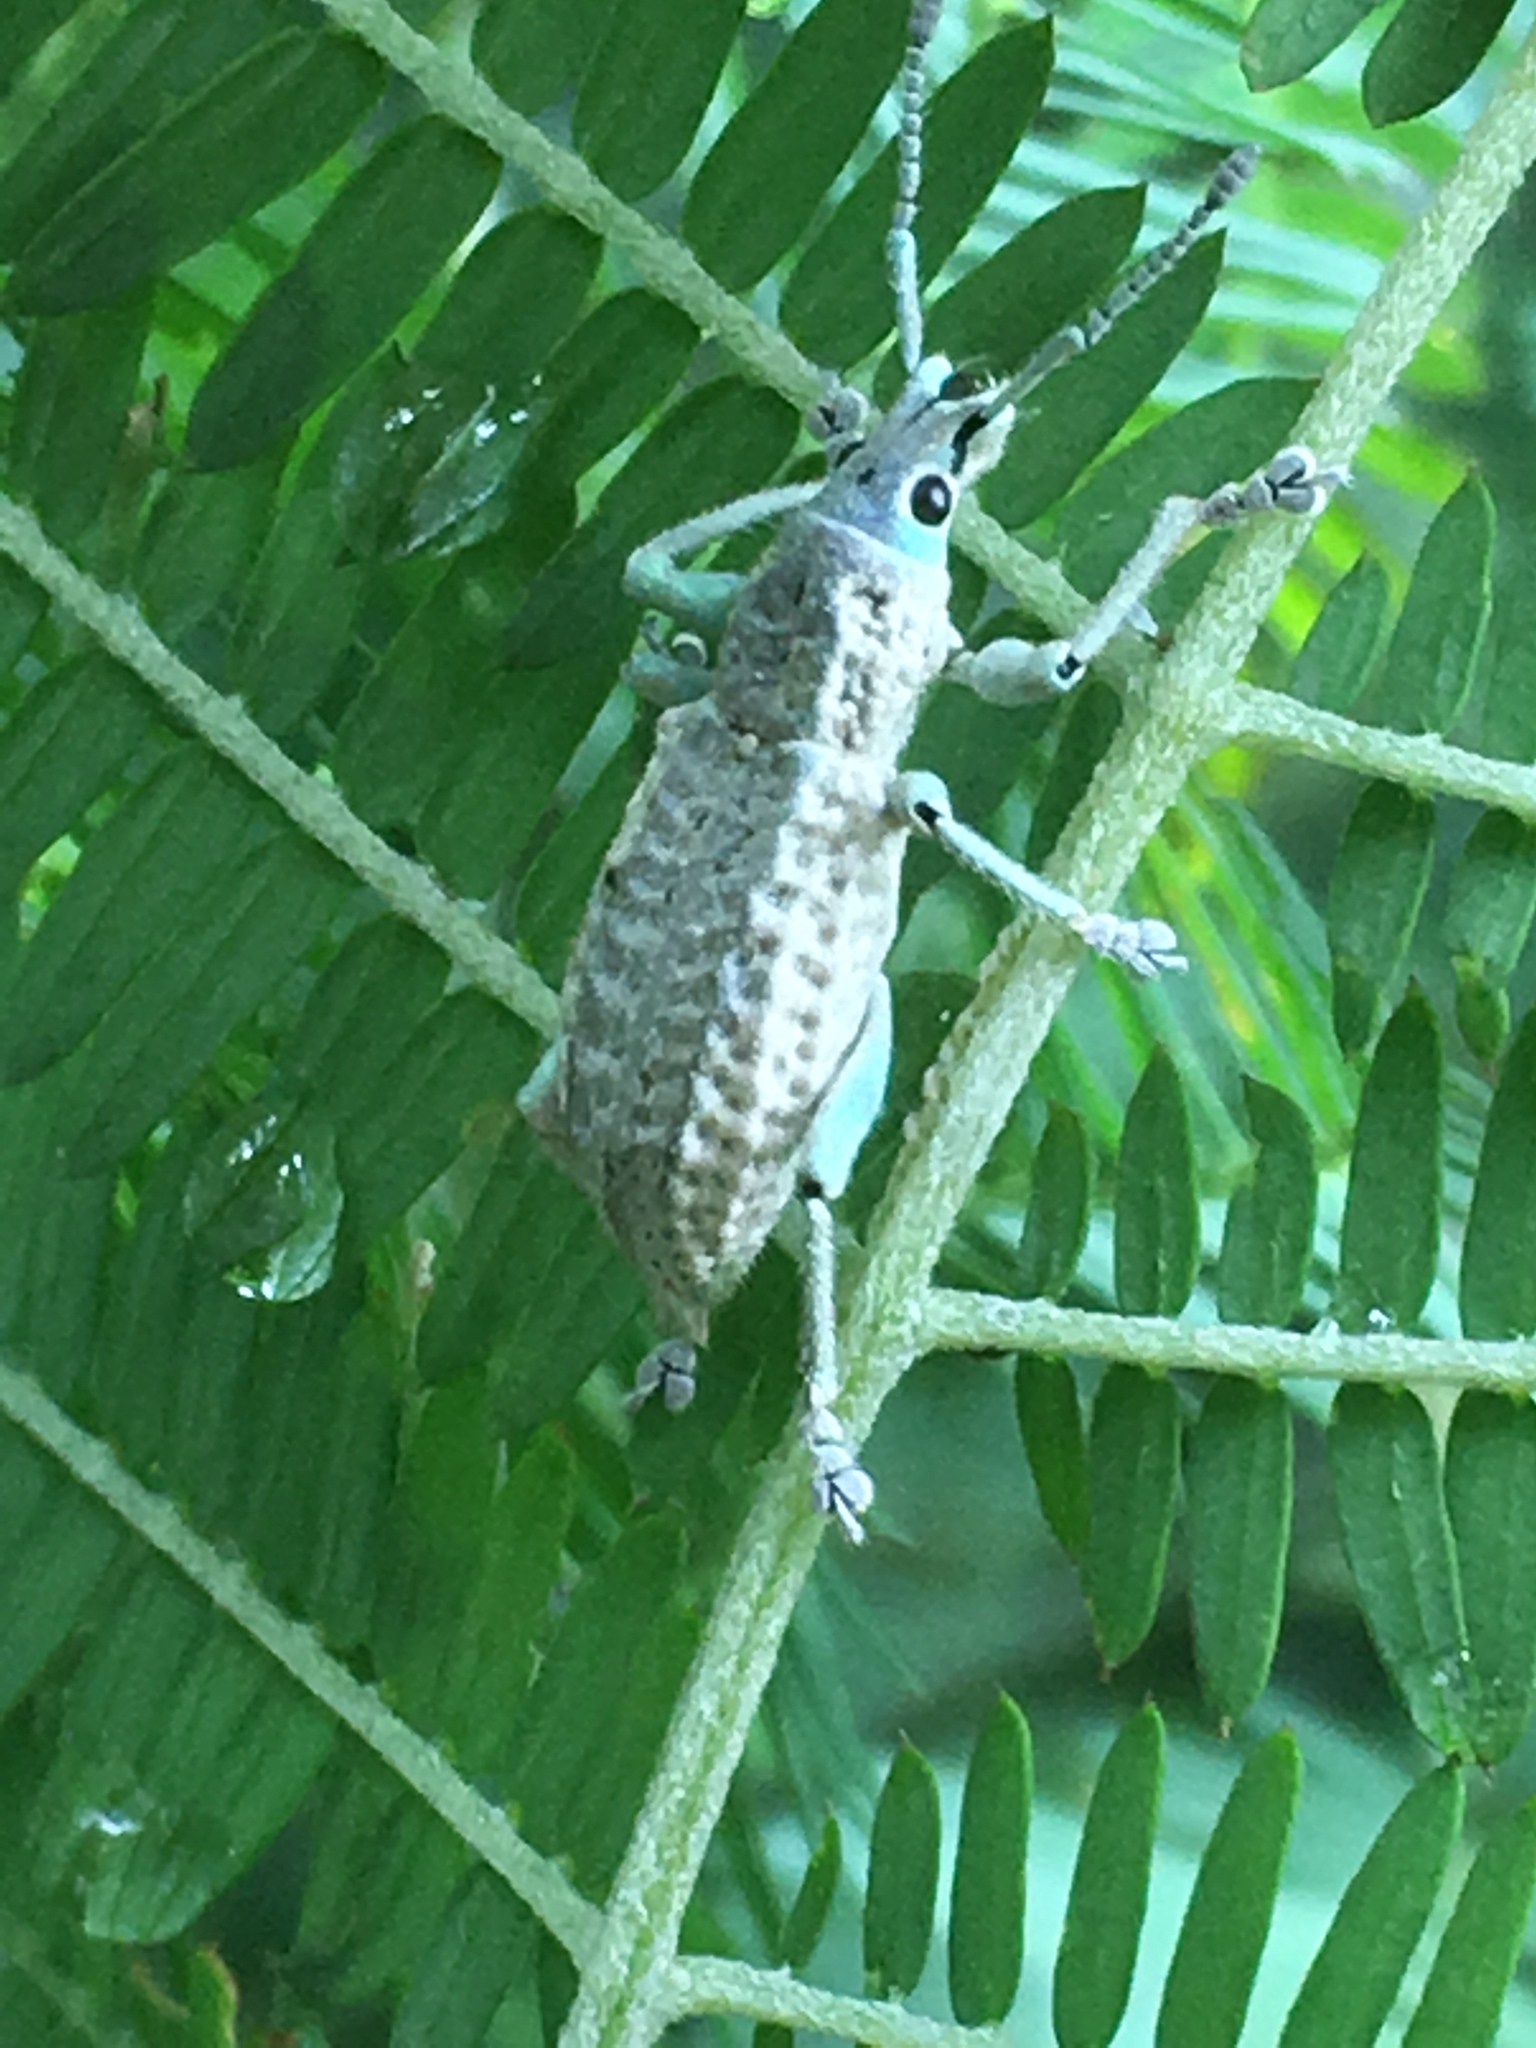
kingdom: Animalia
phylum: Arthropoda
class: Insecta
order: Coleoptera
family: Curculionidae
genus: Compsus
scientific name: Compsus canescens
